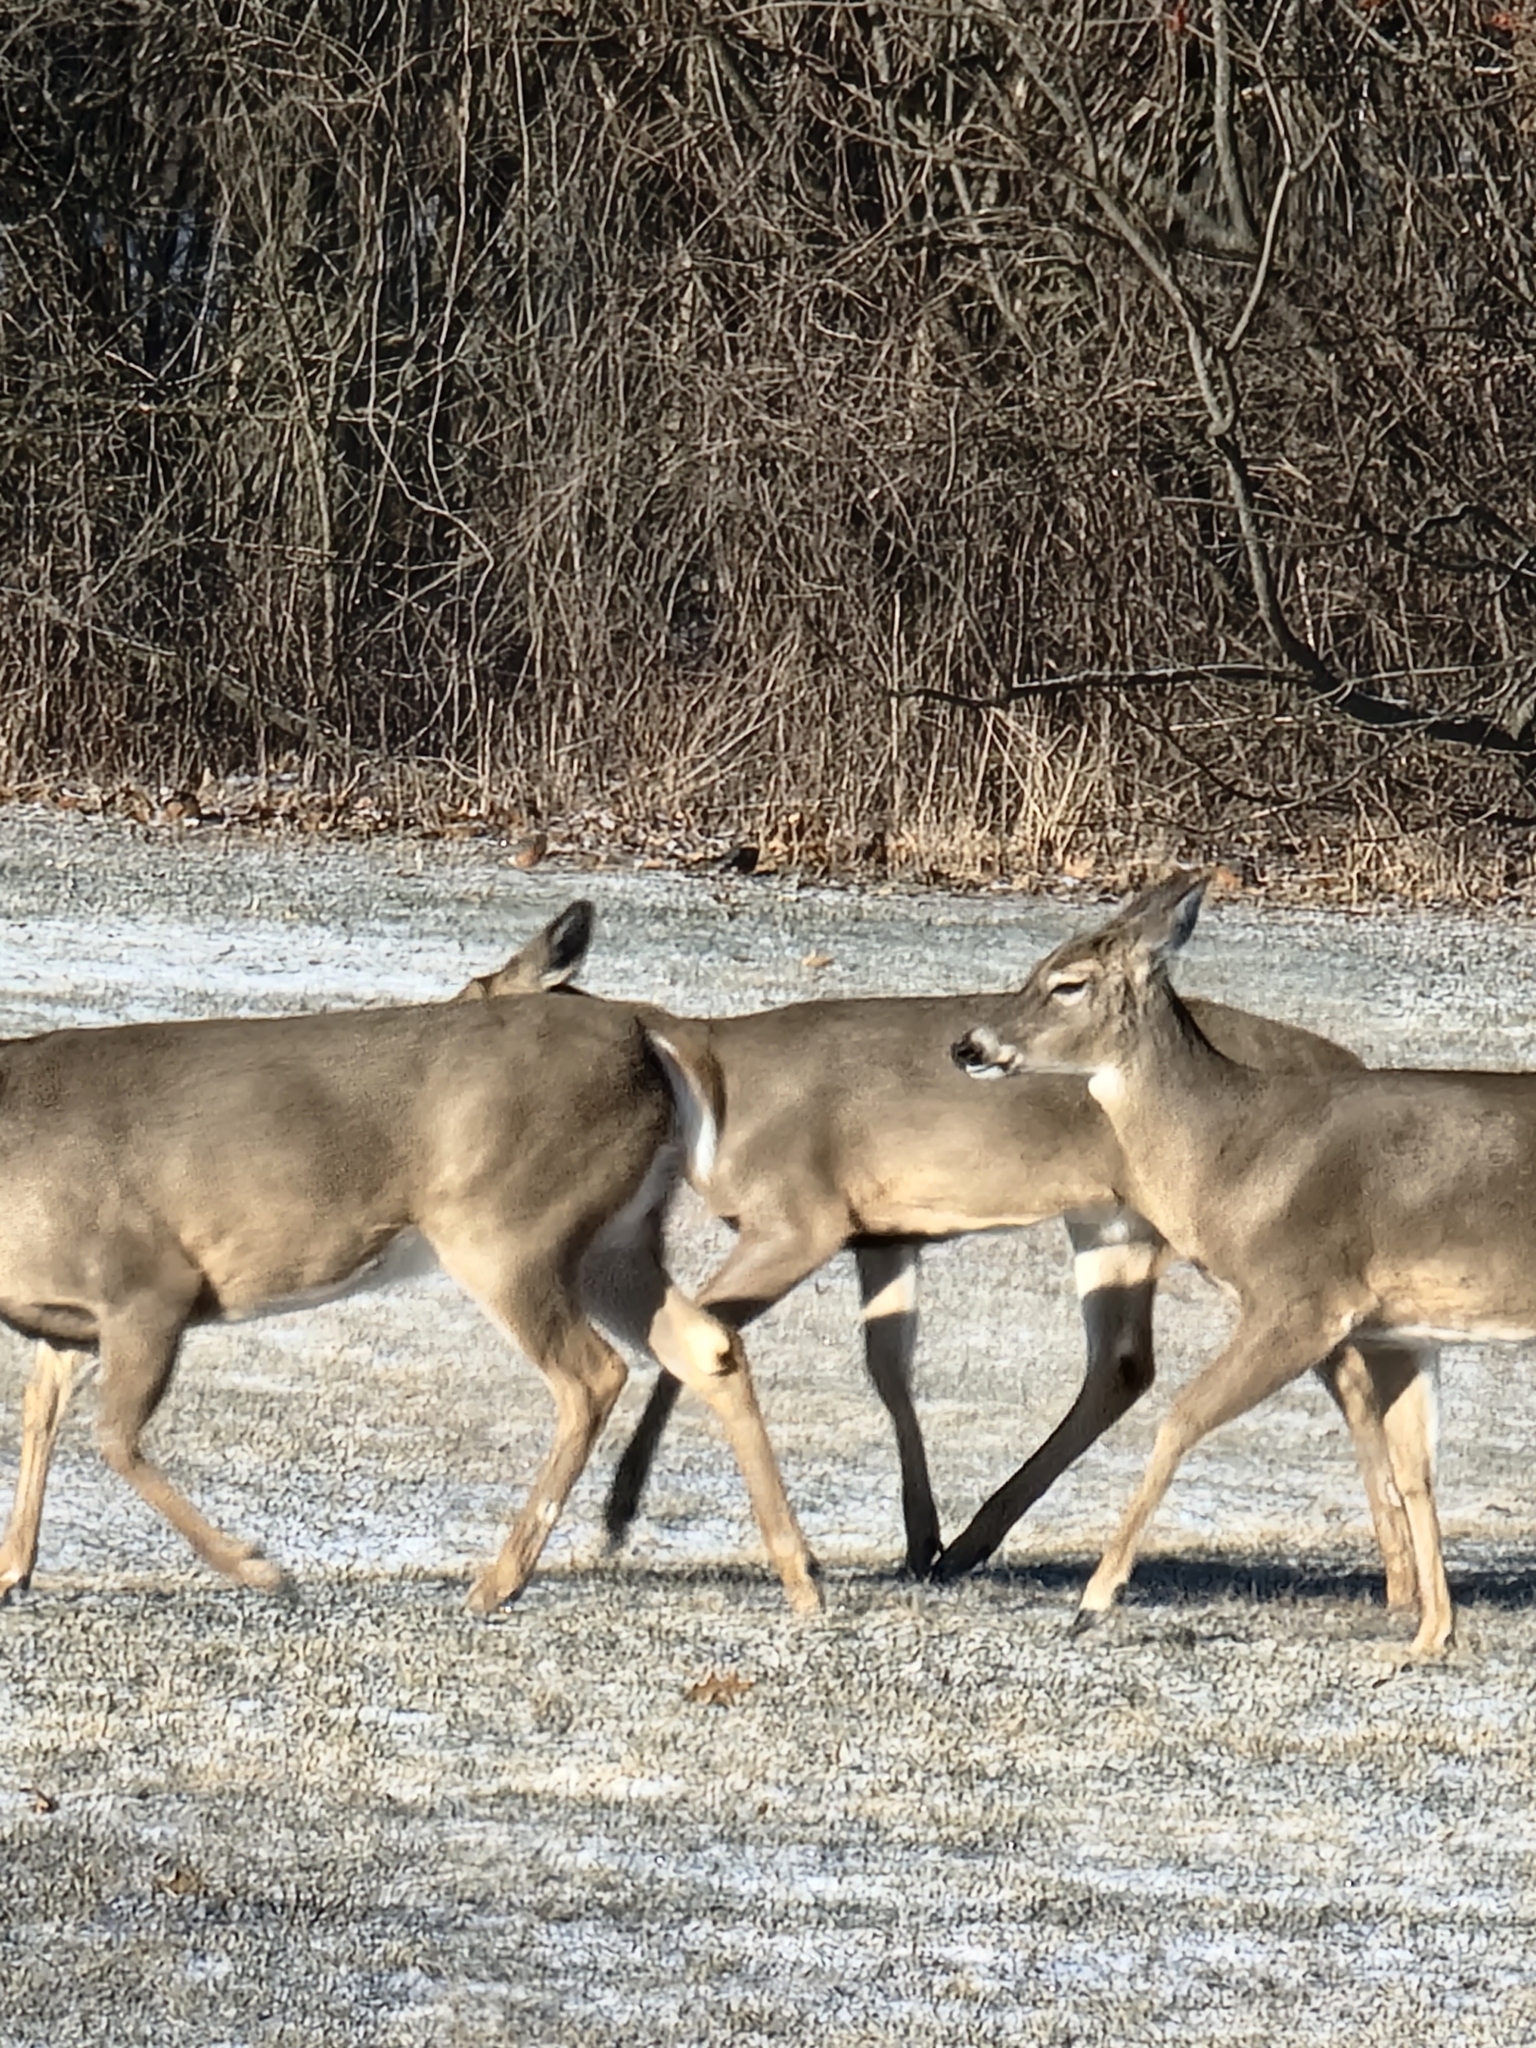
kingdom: Animalia
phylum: Chordata
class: Mammalia
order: Artiodactyla
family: Cervidae
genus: Odocoileus
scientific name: Odocoileus virginianus
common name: White-tailed deer
